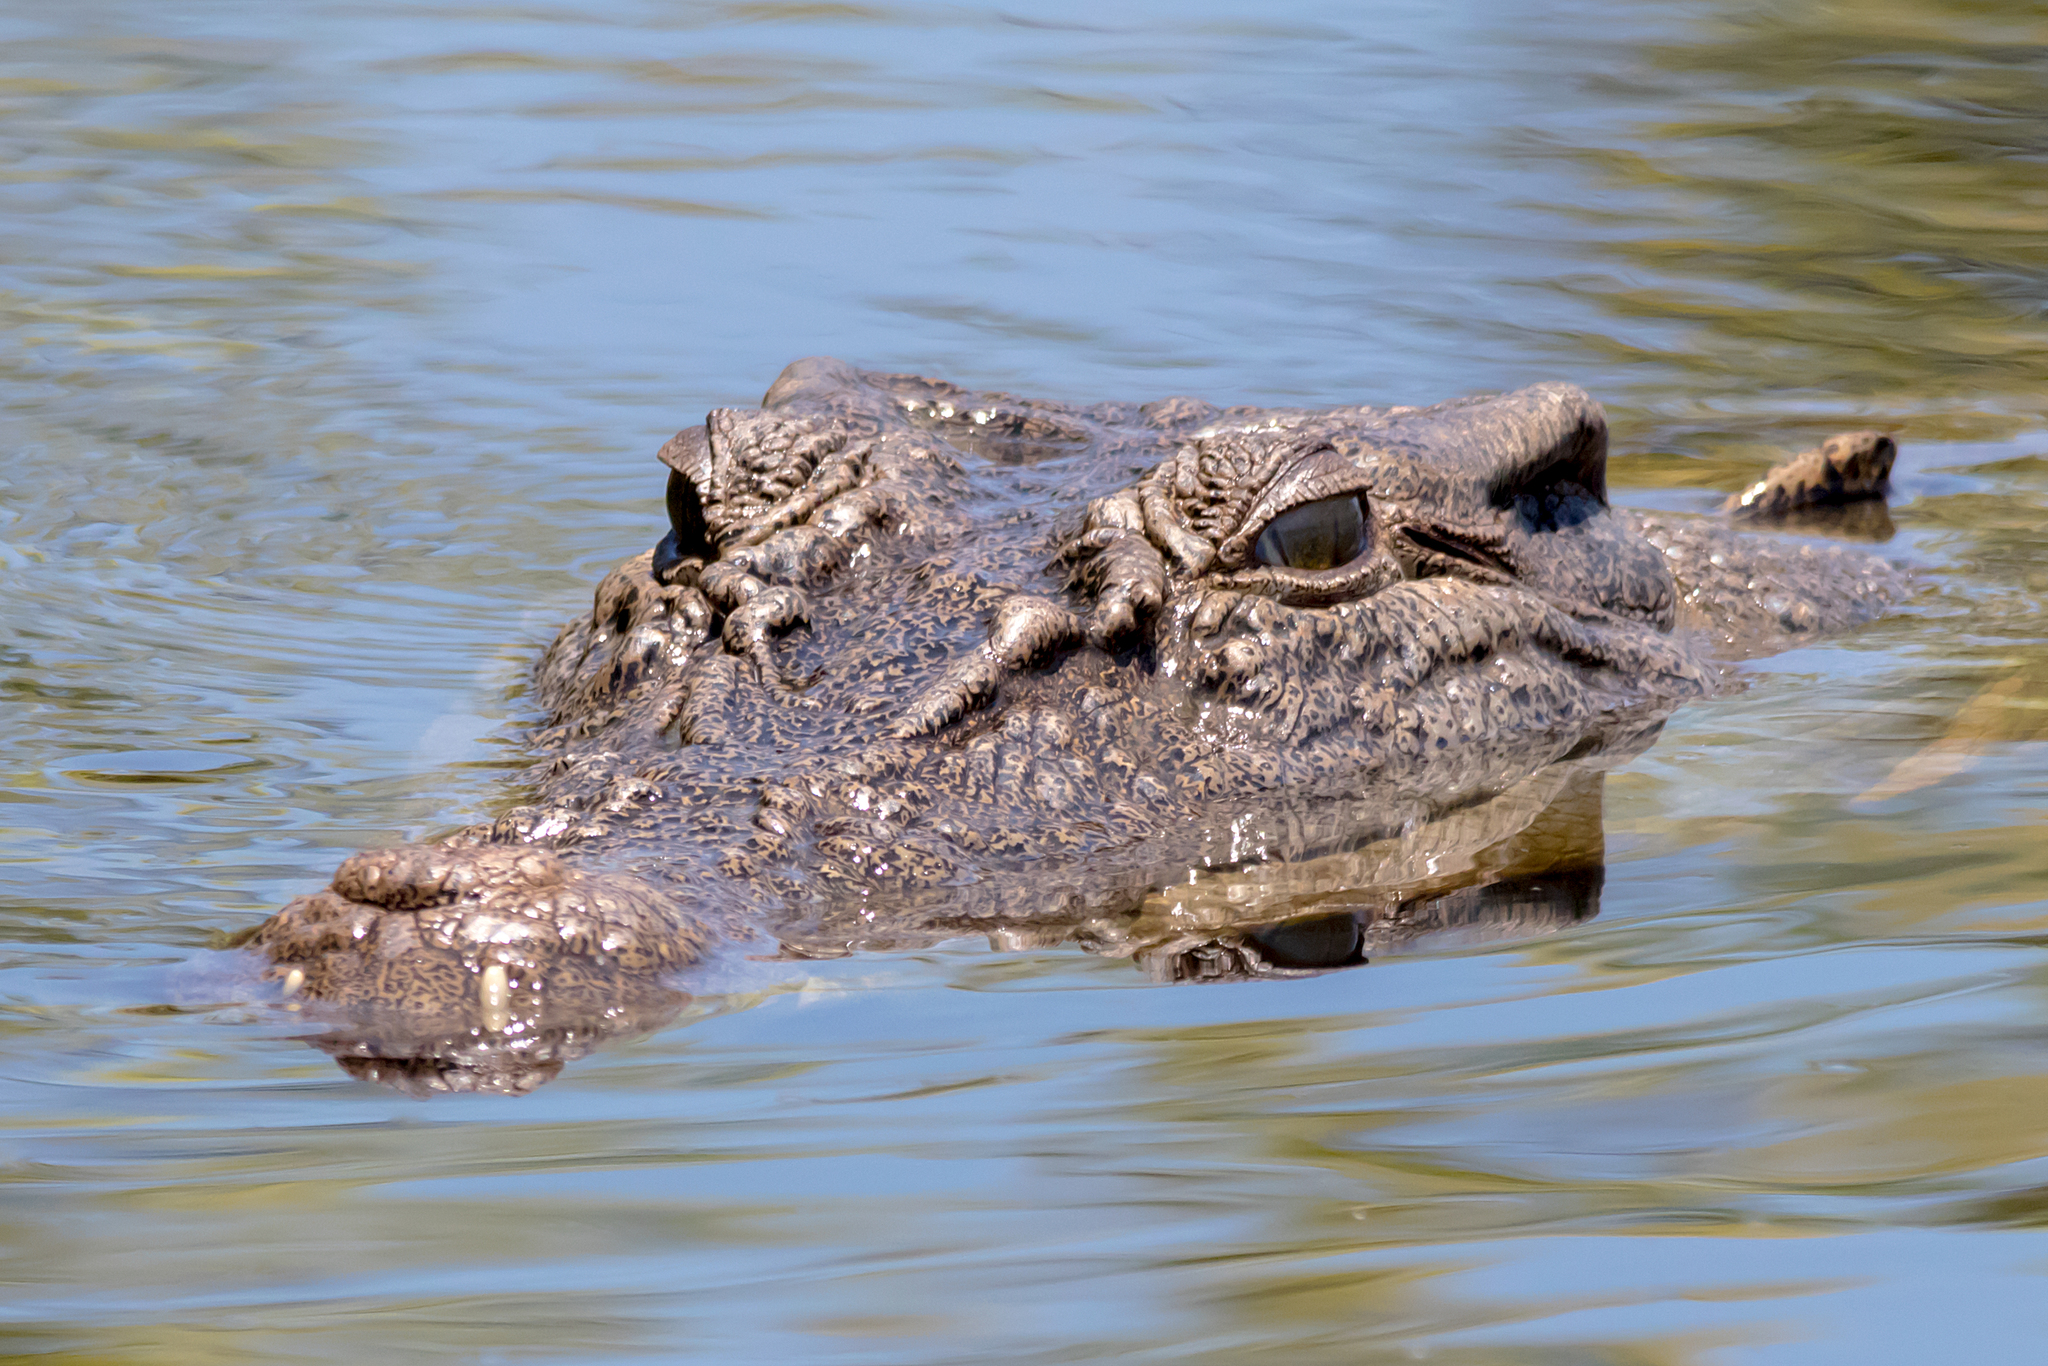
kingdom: Animalia
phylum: Chordata
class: Crocodylia
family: Crocodylidae
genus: Crocodylus
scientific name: Crocodylus porosus
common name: Saltwater crocodile
